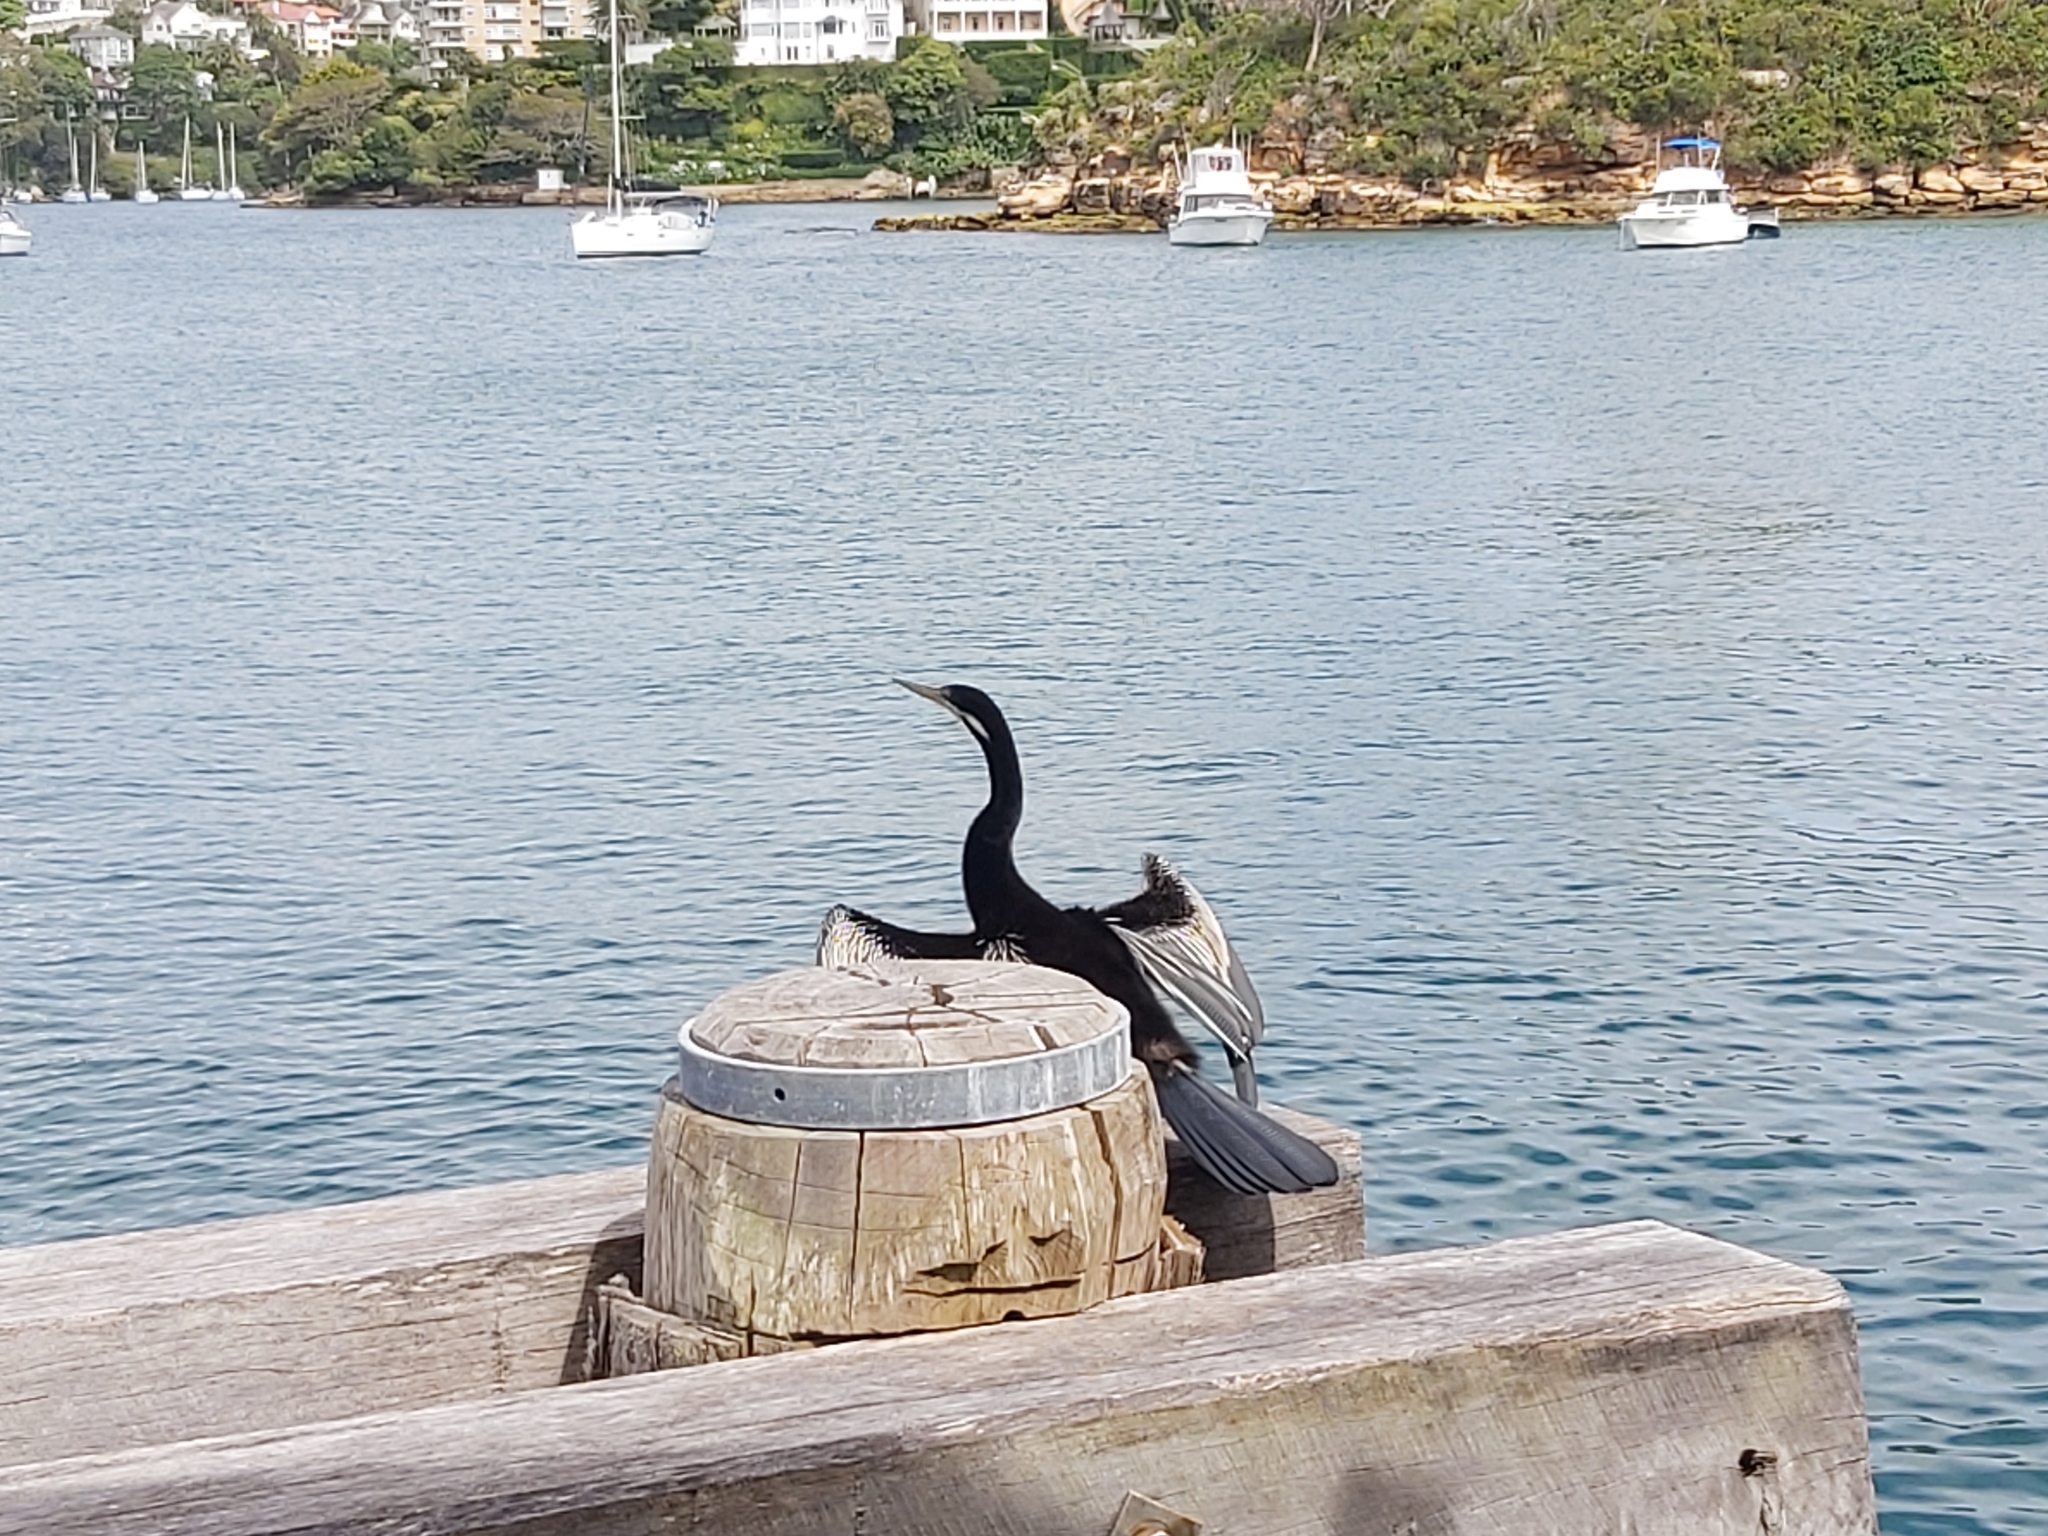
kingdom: Animalia
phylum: Chordata
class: Aves
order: Suliformes
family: Anhingidae
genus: Anhinga
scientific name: Anhinga novaehollandiae
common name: Australasian darter
